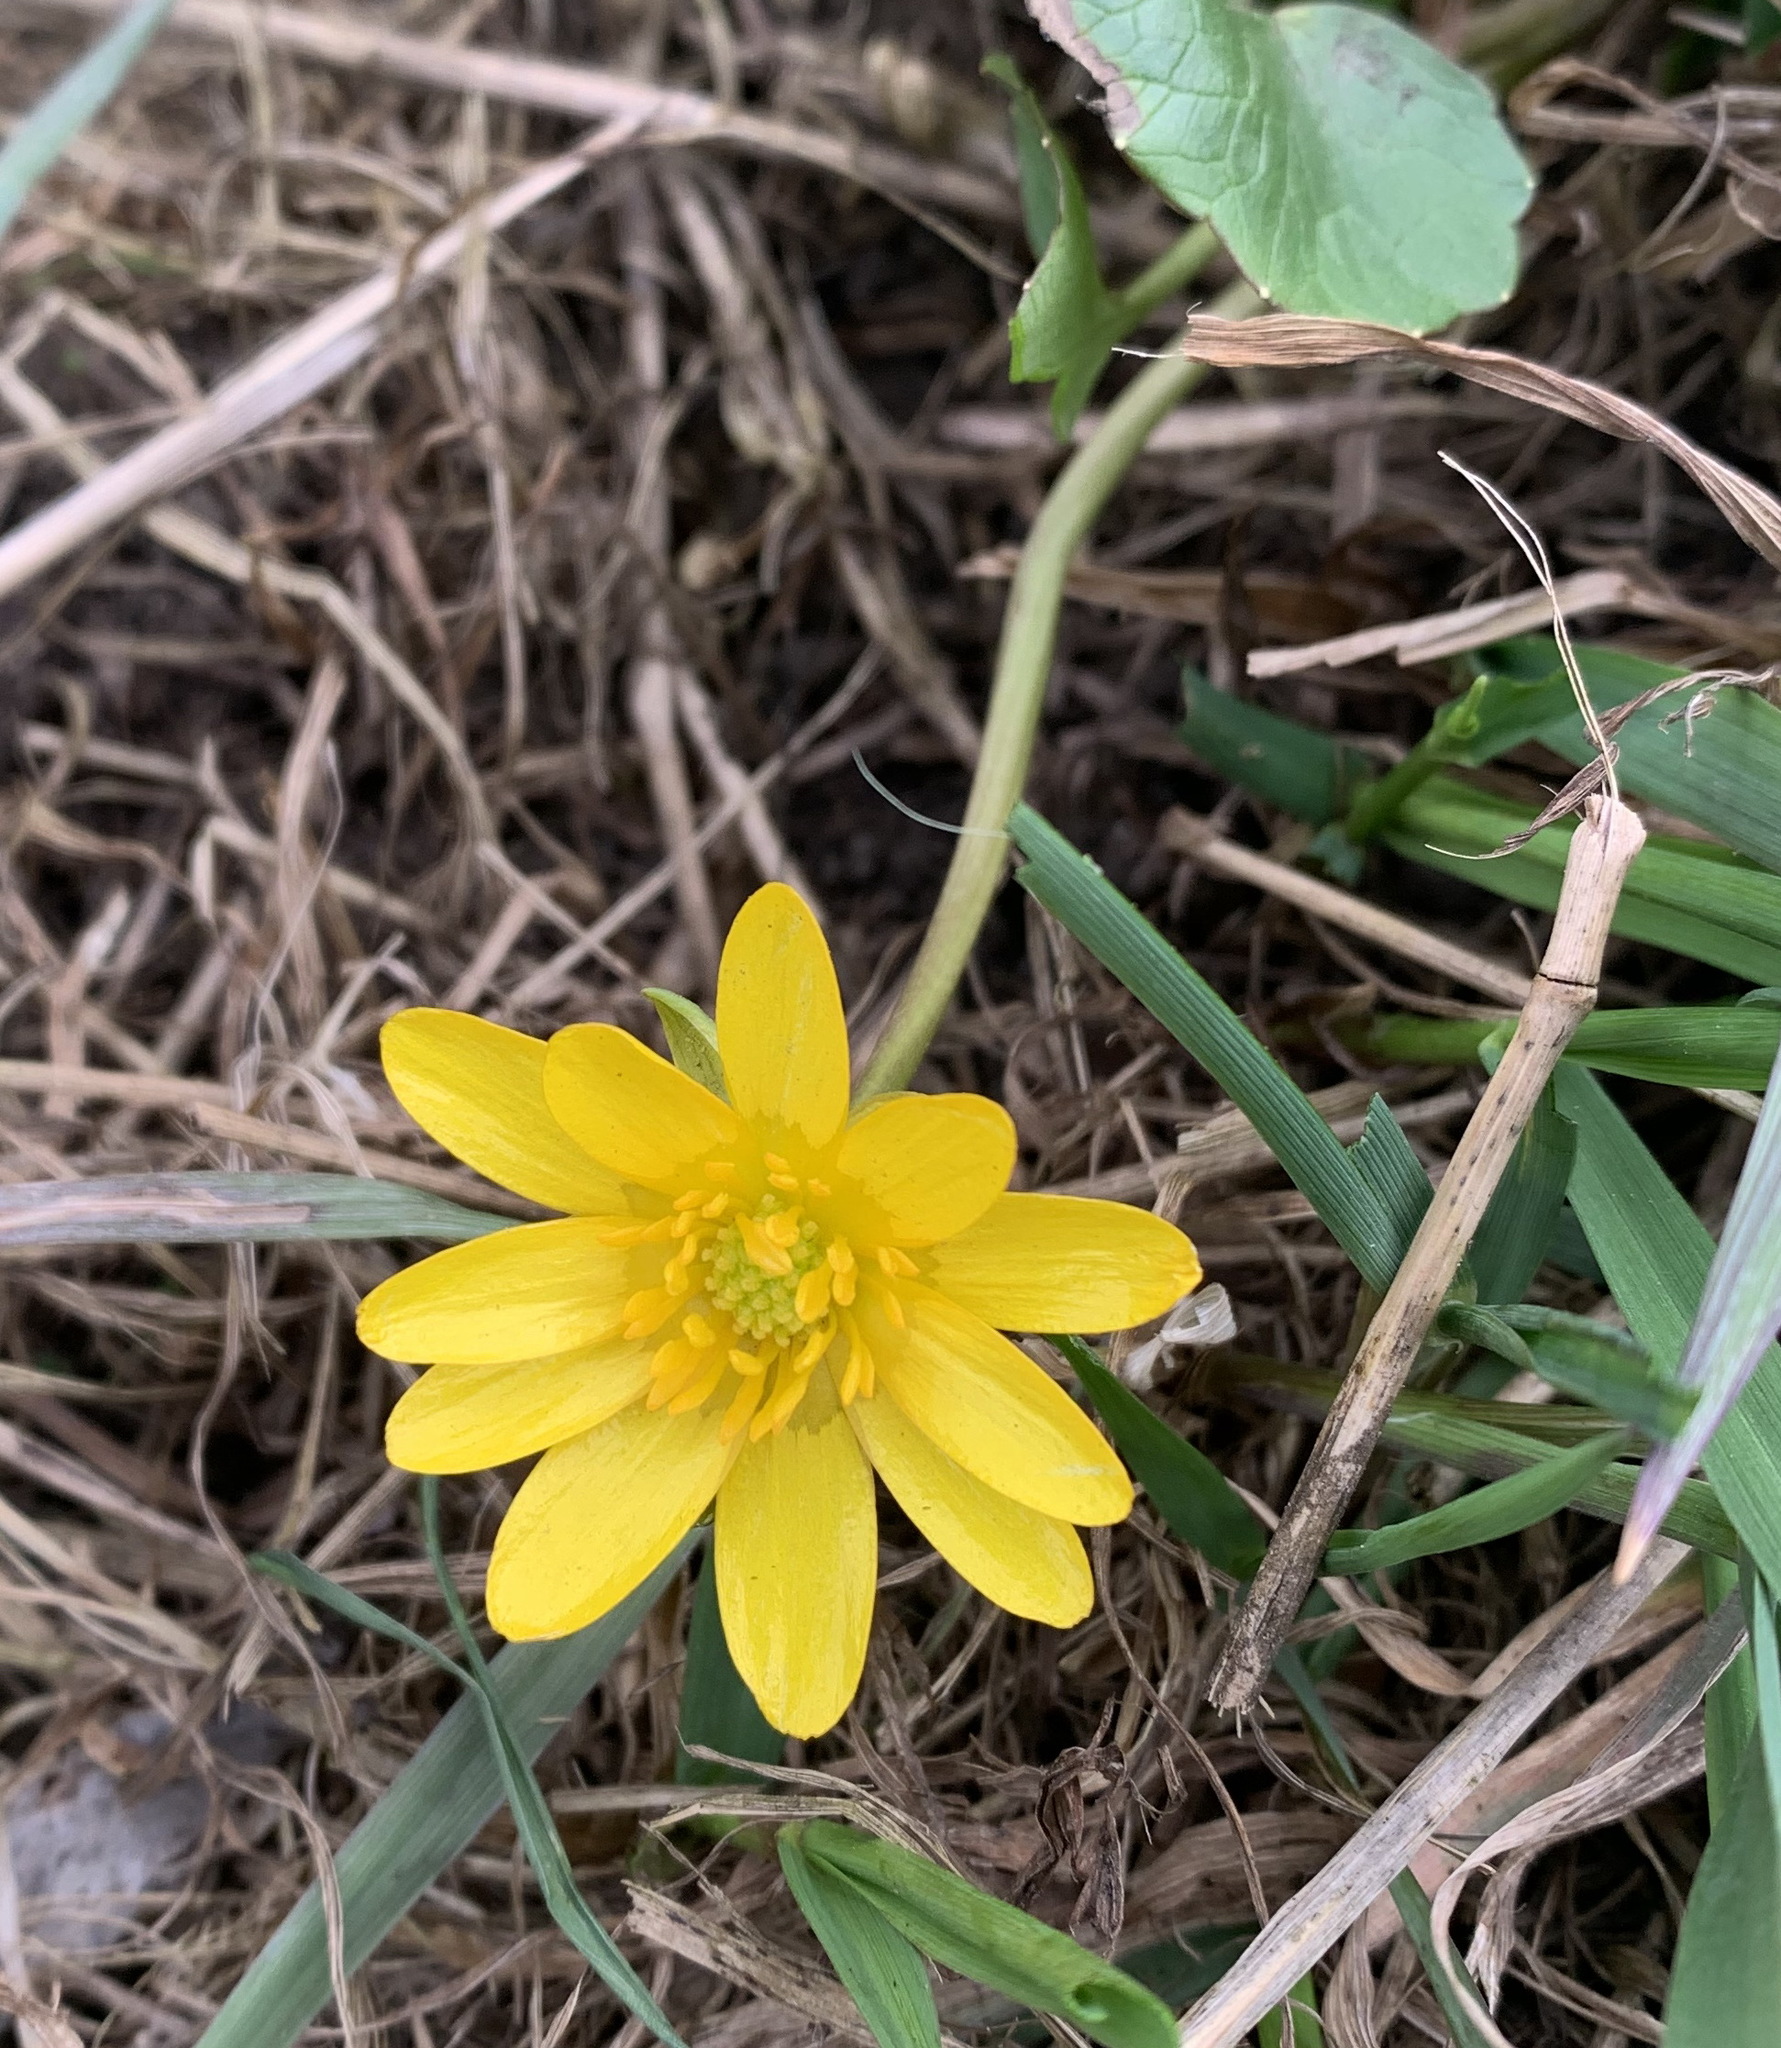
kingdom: Plantae
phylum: Tracheophyta
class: Magnoliopsida
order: Ranunculales
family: Ranunculaceae
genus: Ficaria
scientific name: Ficaria verna
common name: Lesser celandine
